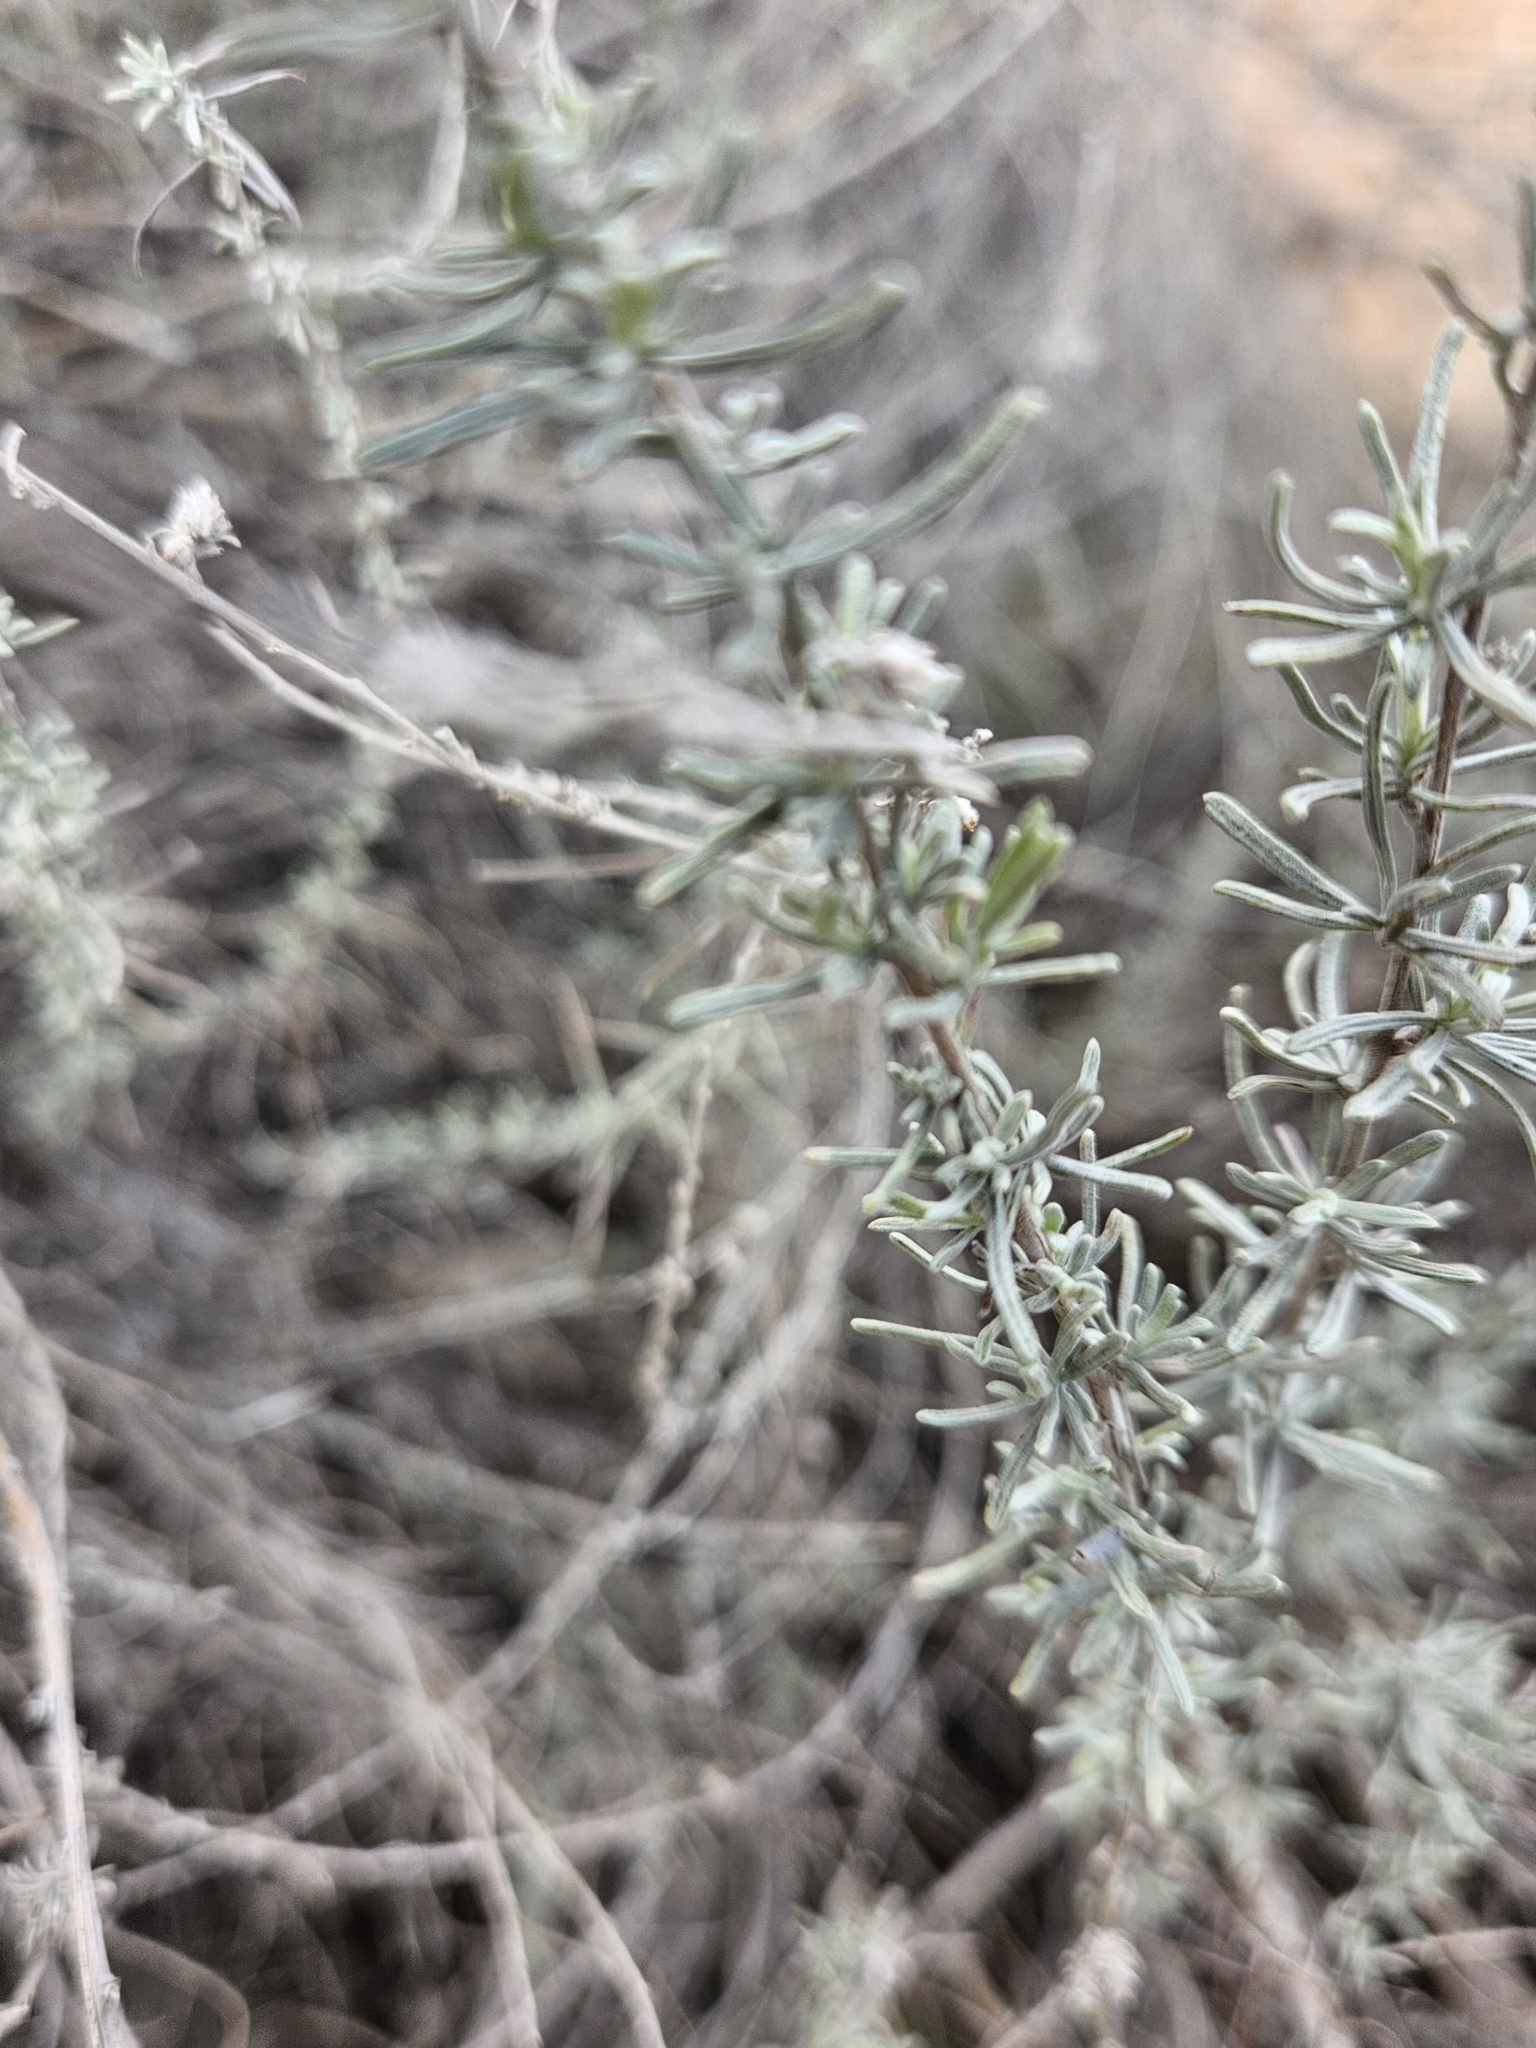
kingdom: Plantae
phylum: Tracheophyta
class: Magnoliopsida
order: Asterales
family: Asteraceae
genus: Artemisia
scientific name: Artemisia filifolia
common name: Sand-sage
